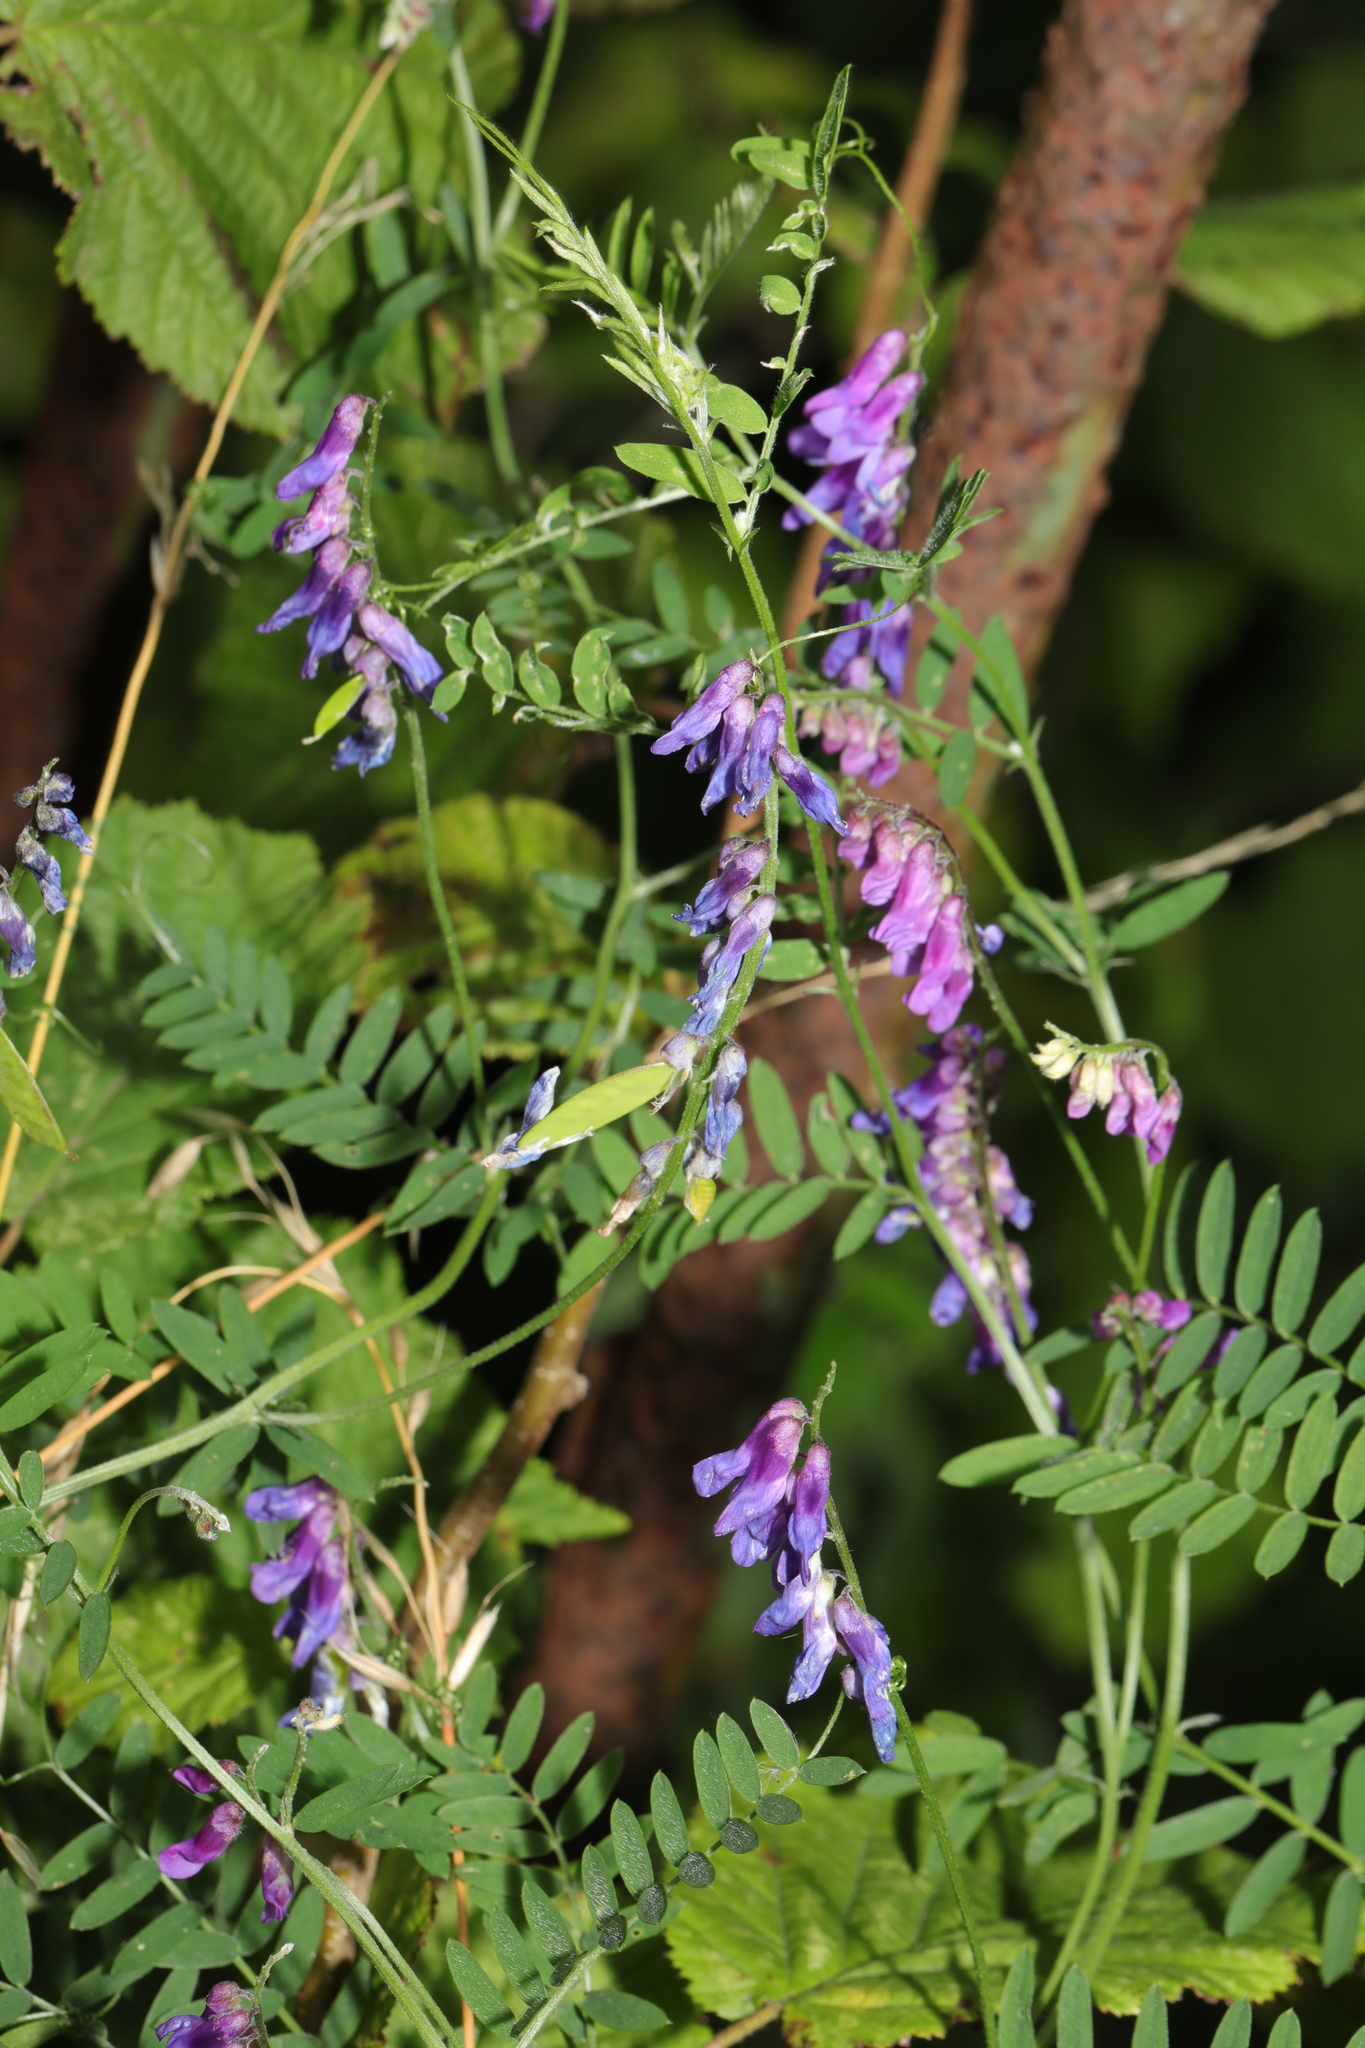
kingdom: Plantae
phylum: Tracheophyta
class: Magnoliopsida
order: Fabales
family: Fabaceae
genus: Vicia
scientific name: Vicia cracca
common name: Bird vetch
